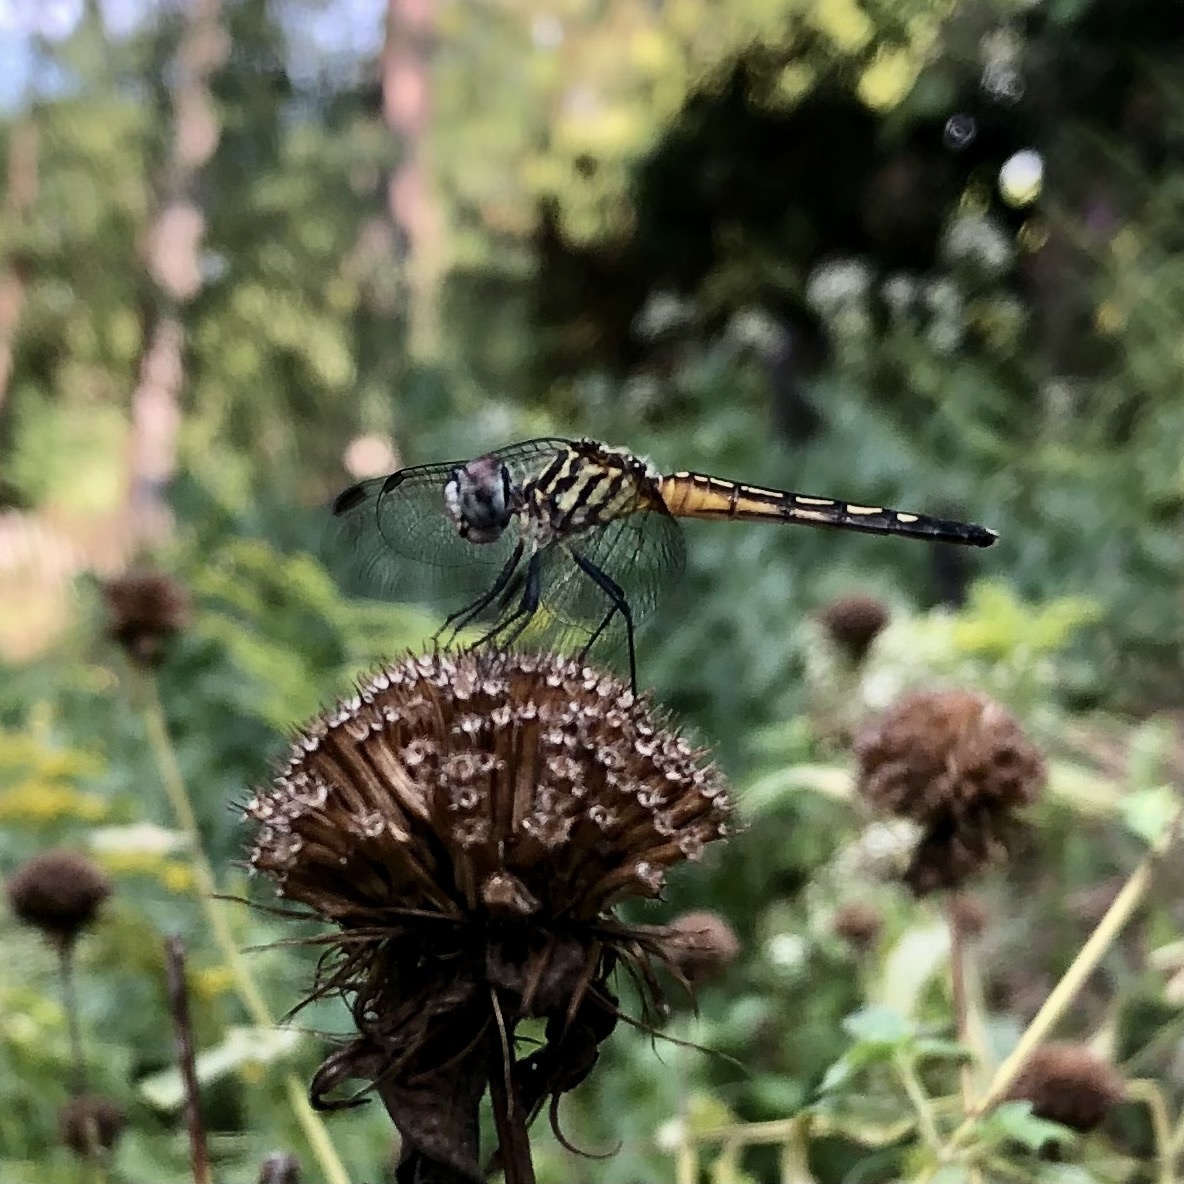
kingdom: Animalia
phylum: Arthropoda
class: Insecta
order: Odonata
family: Libellulidae
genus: Pachydiplax
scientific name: Pachydiplax longipennis
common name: Blue dasher
